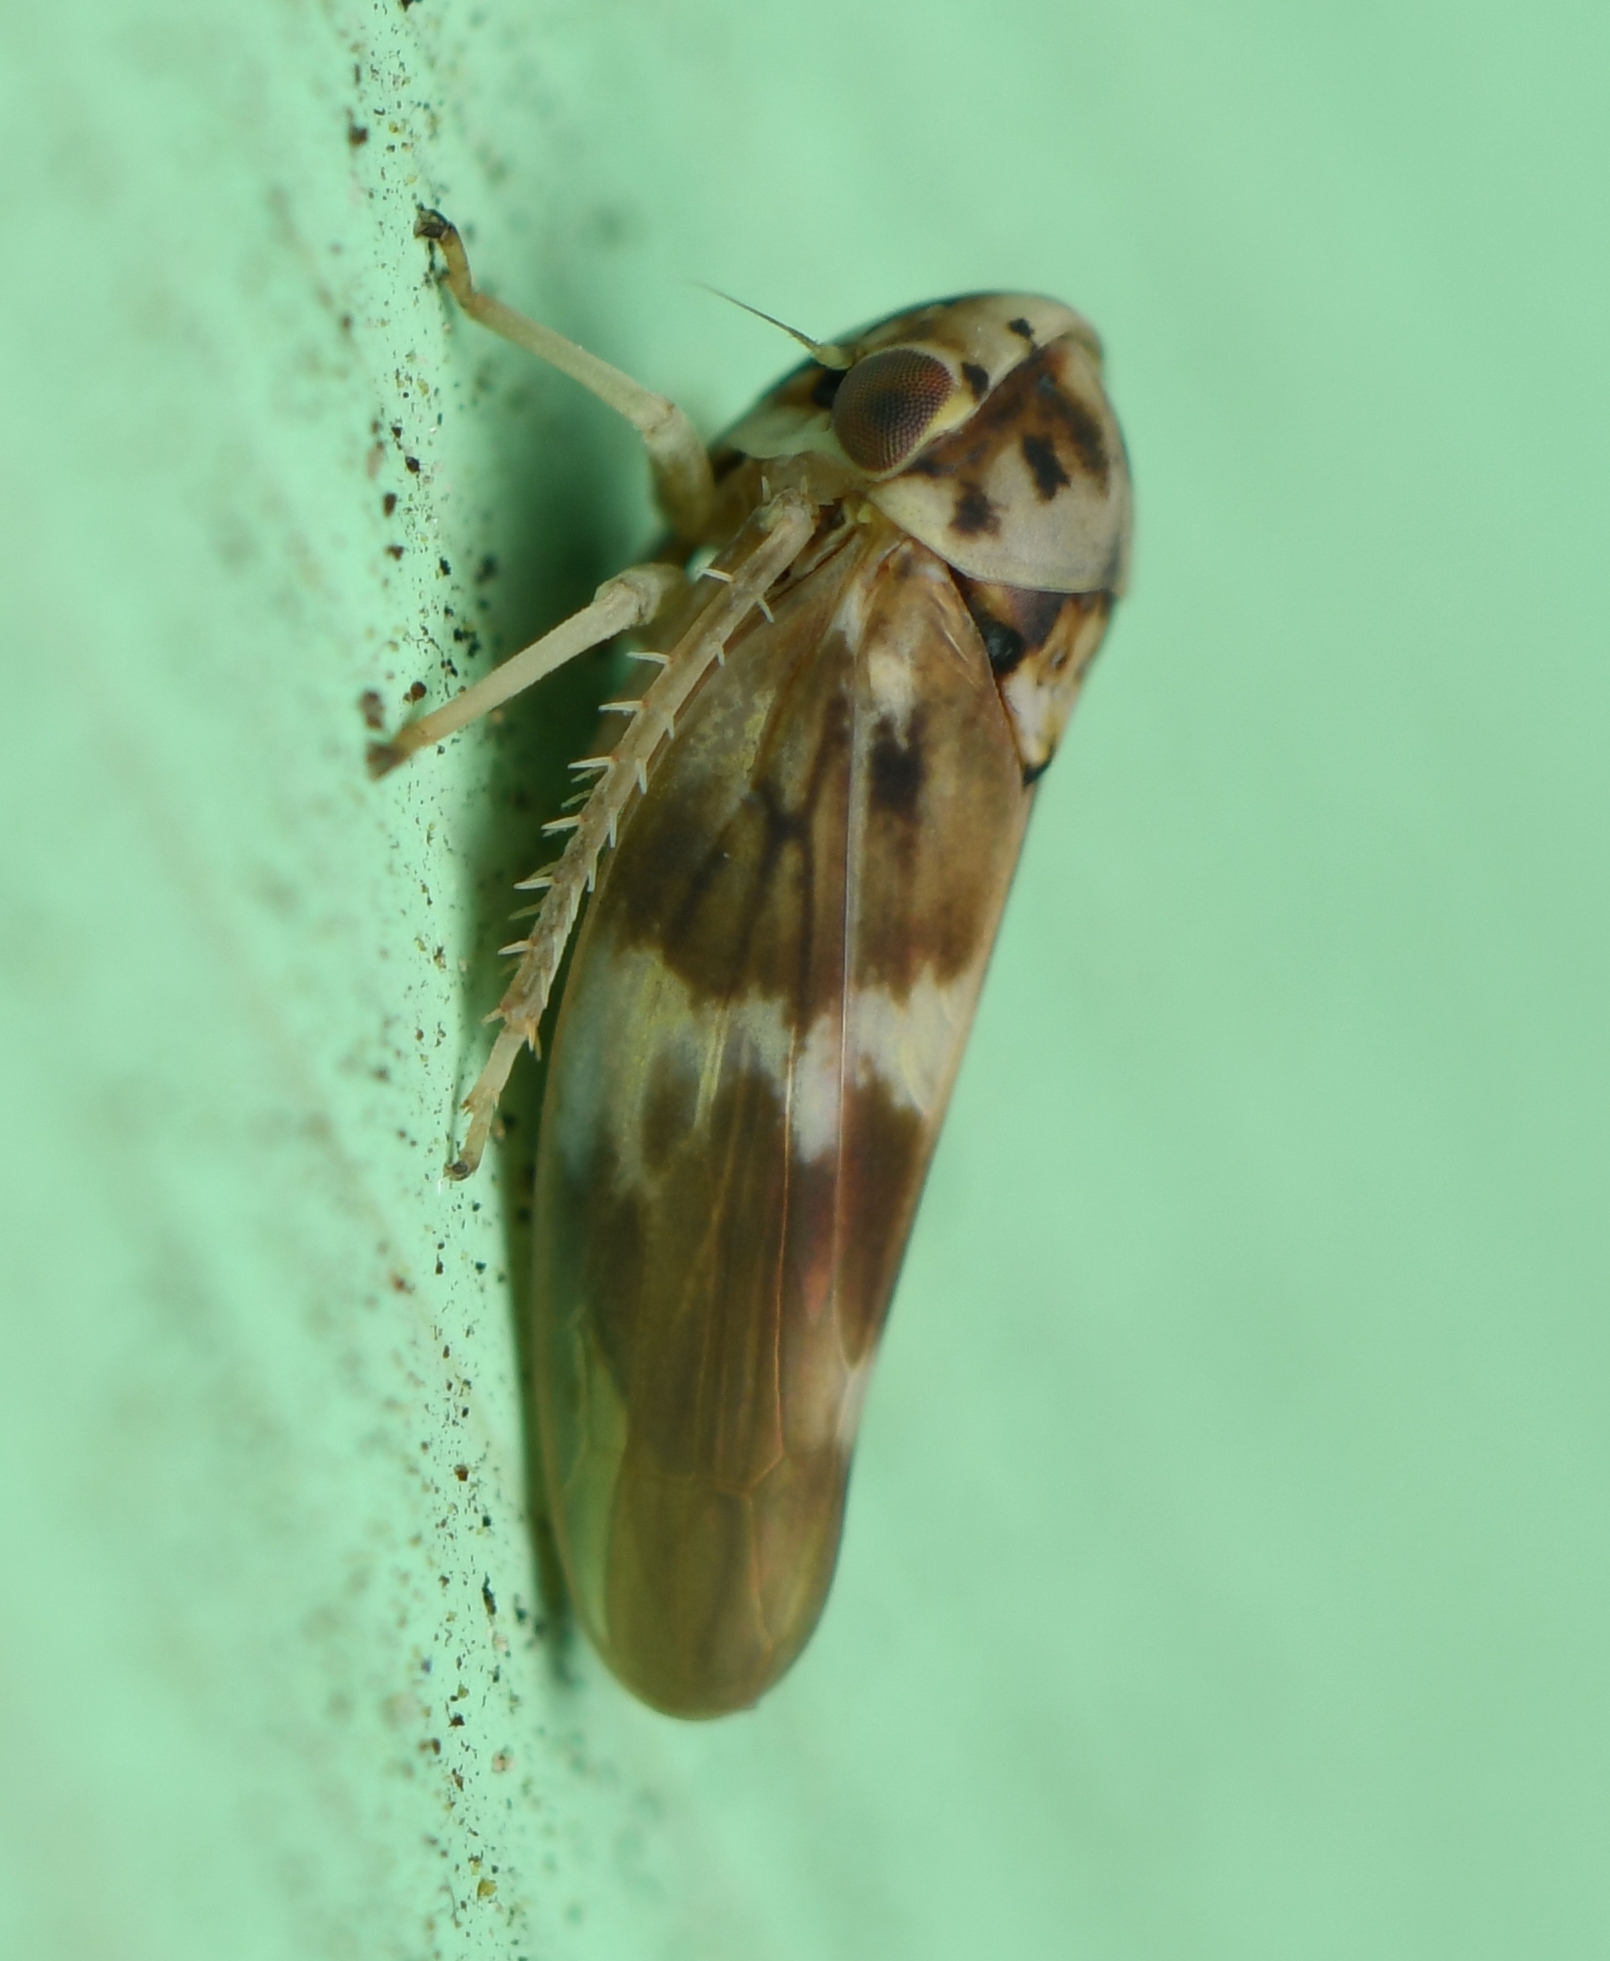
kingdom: Animalia
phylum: Arthropoda
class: Insecta
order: Hemiptera
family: Cicadellidae
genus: Agalliopsis
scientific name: Agalliopsis cervina
